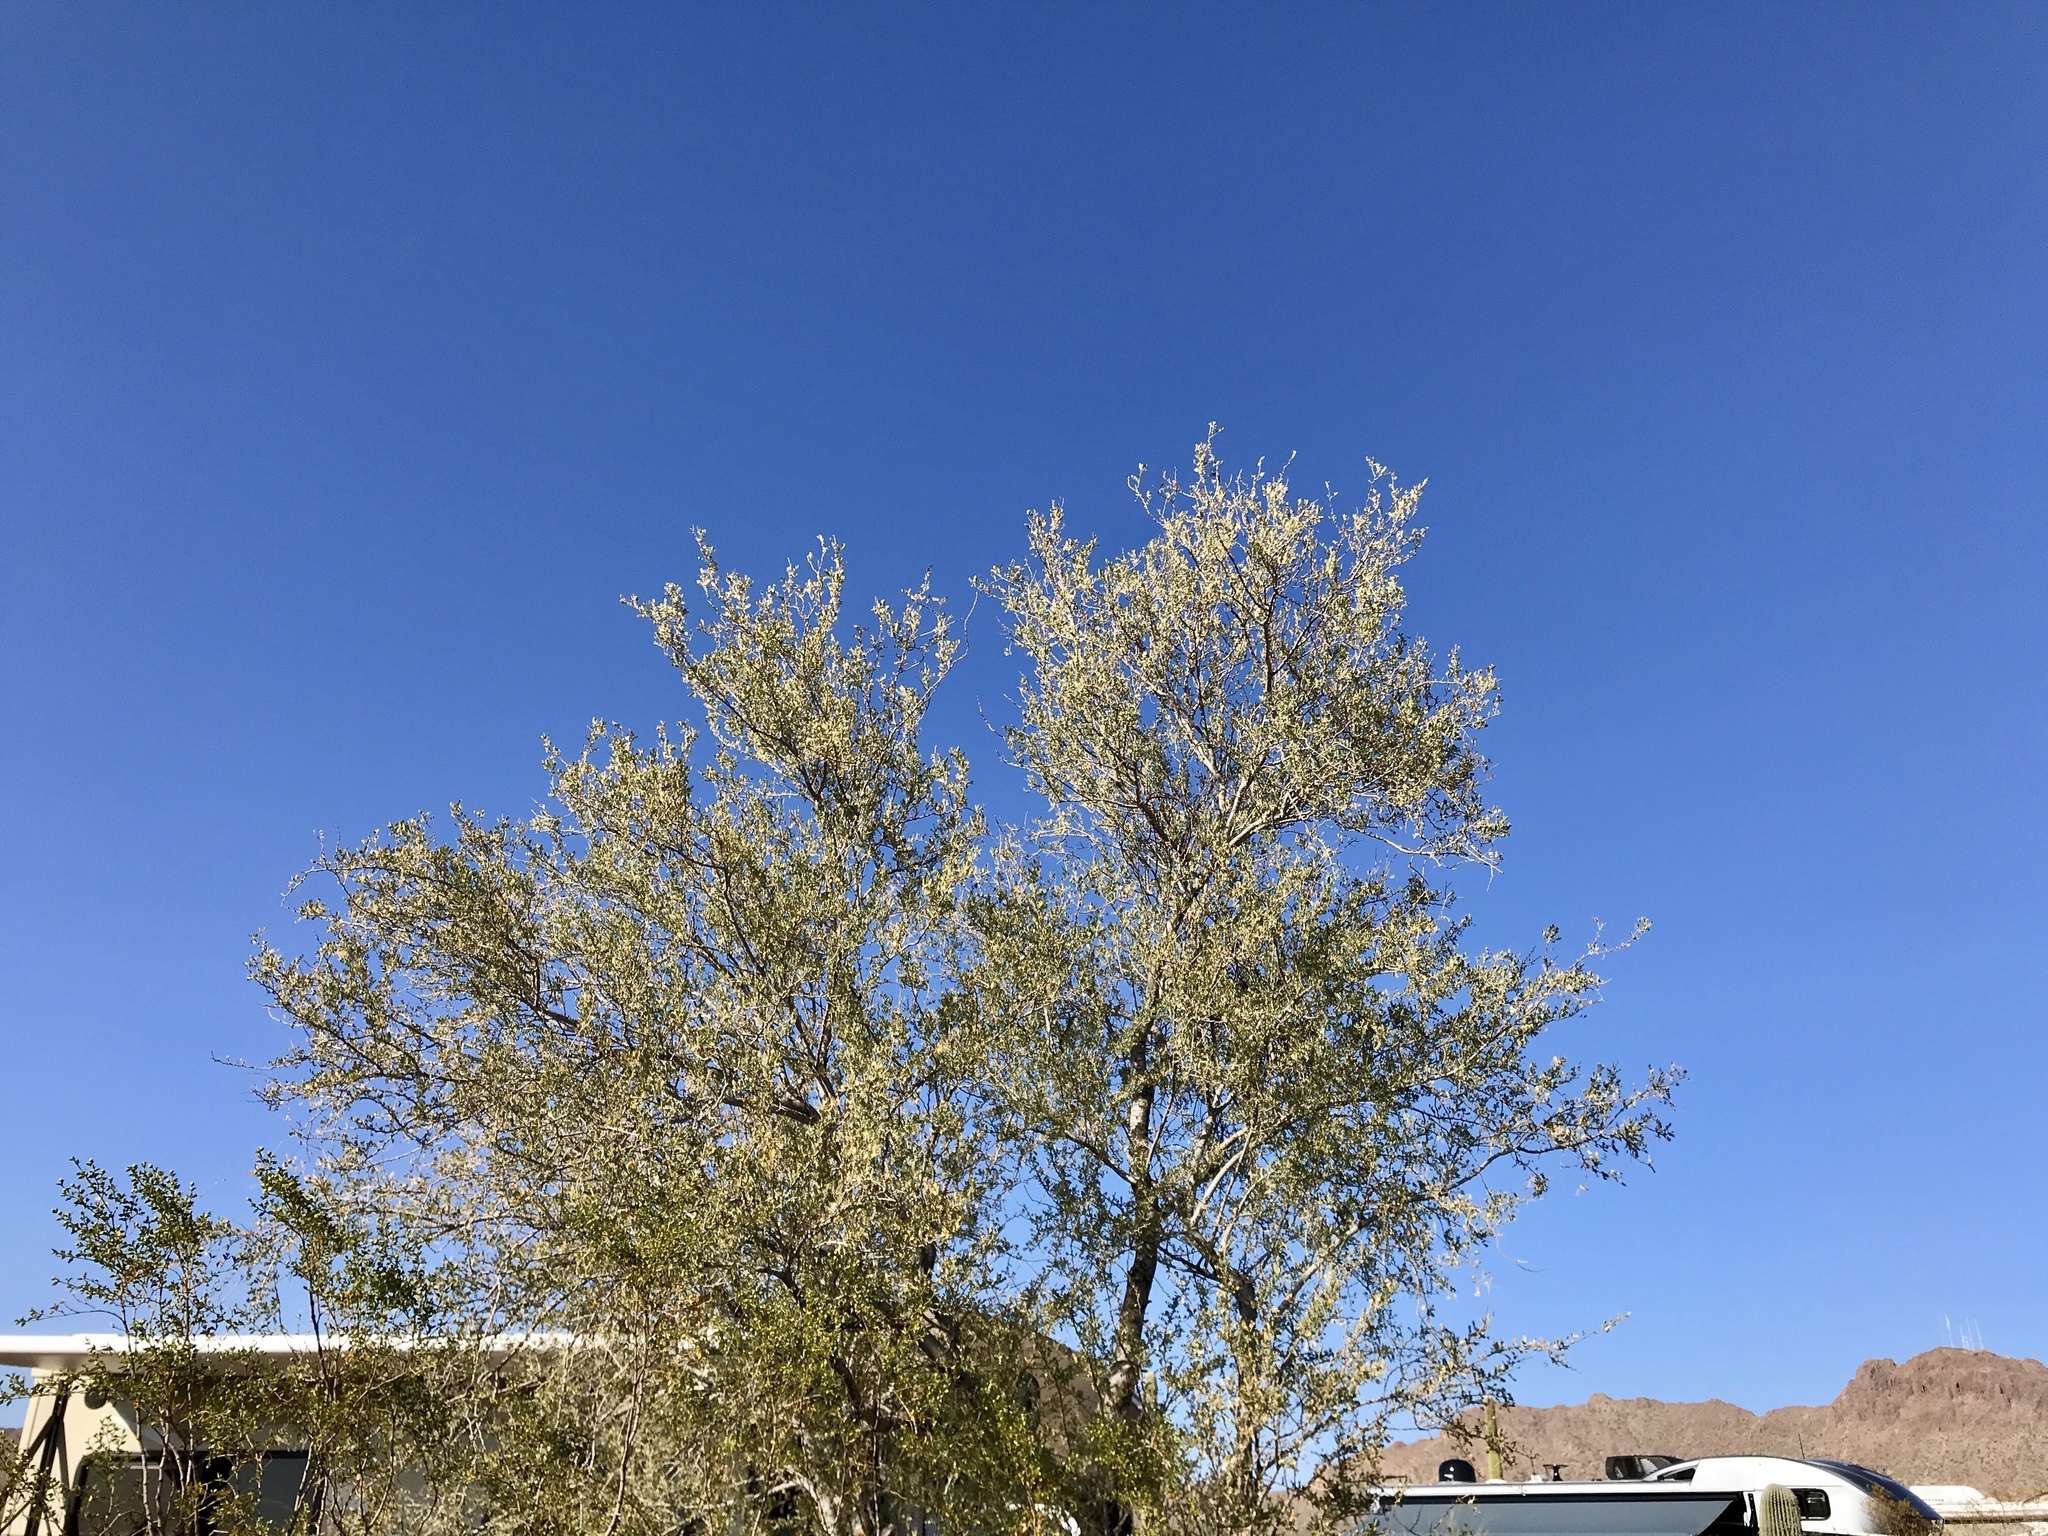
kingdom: Plantae
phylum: Tracheophyta
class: Magnoliopsida
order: Fabales
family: Fabaceae
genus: Olneya
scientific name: Olneya tesota
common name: Desert ironwood
